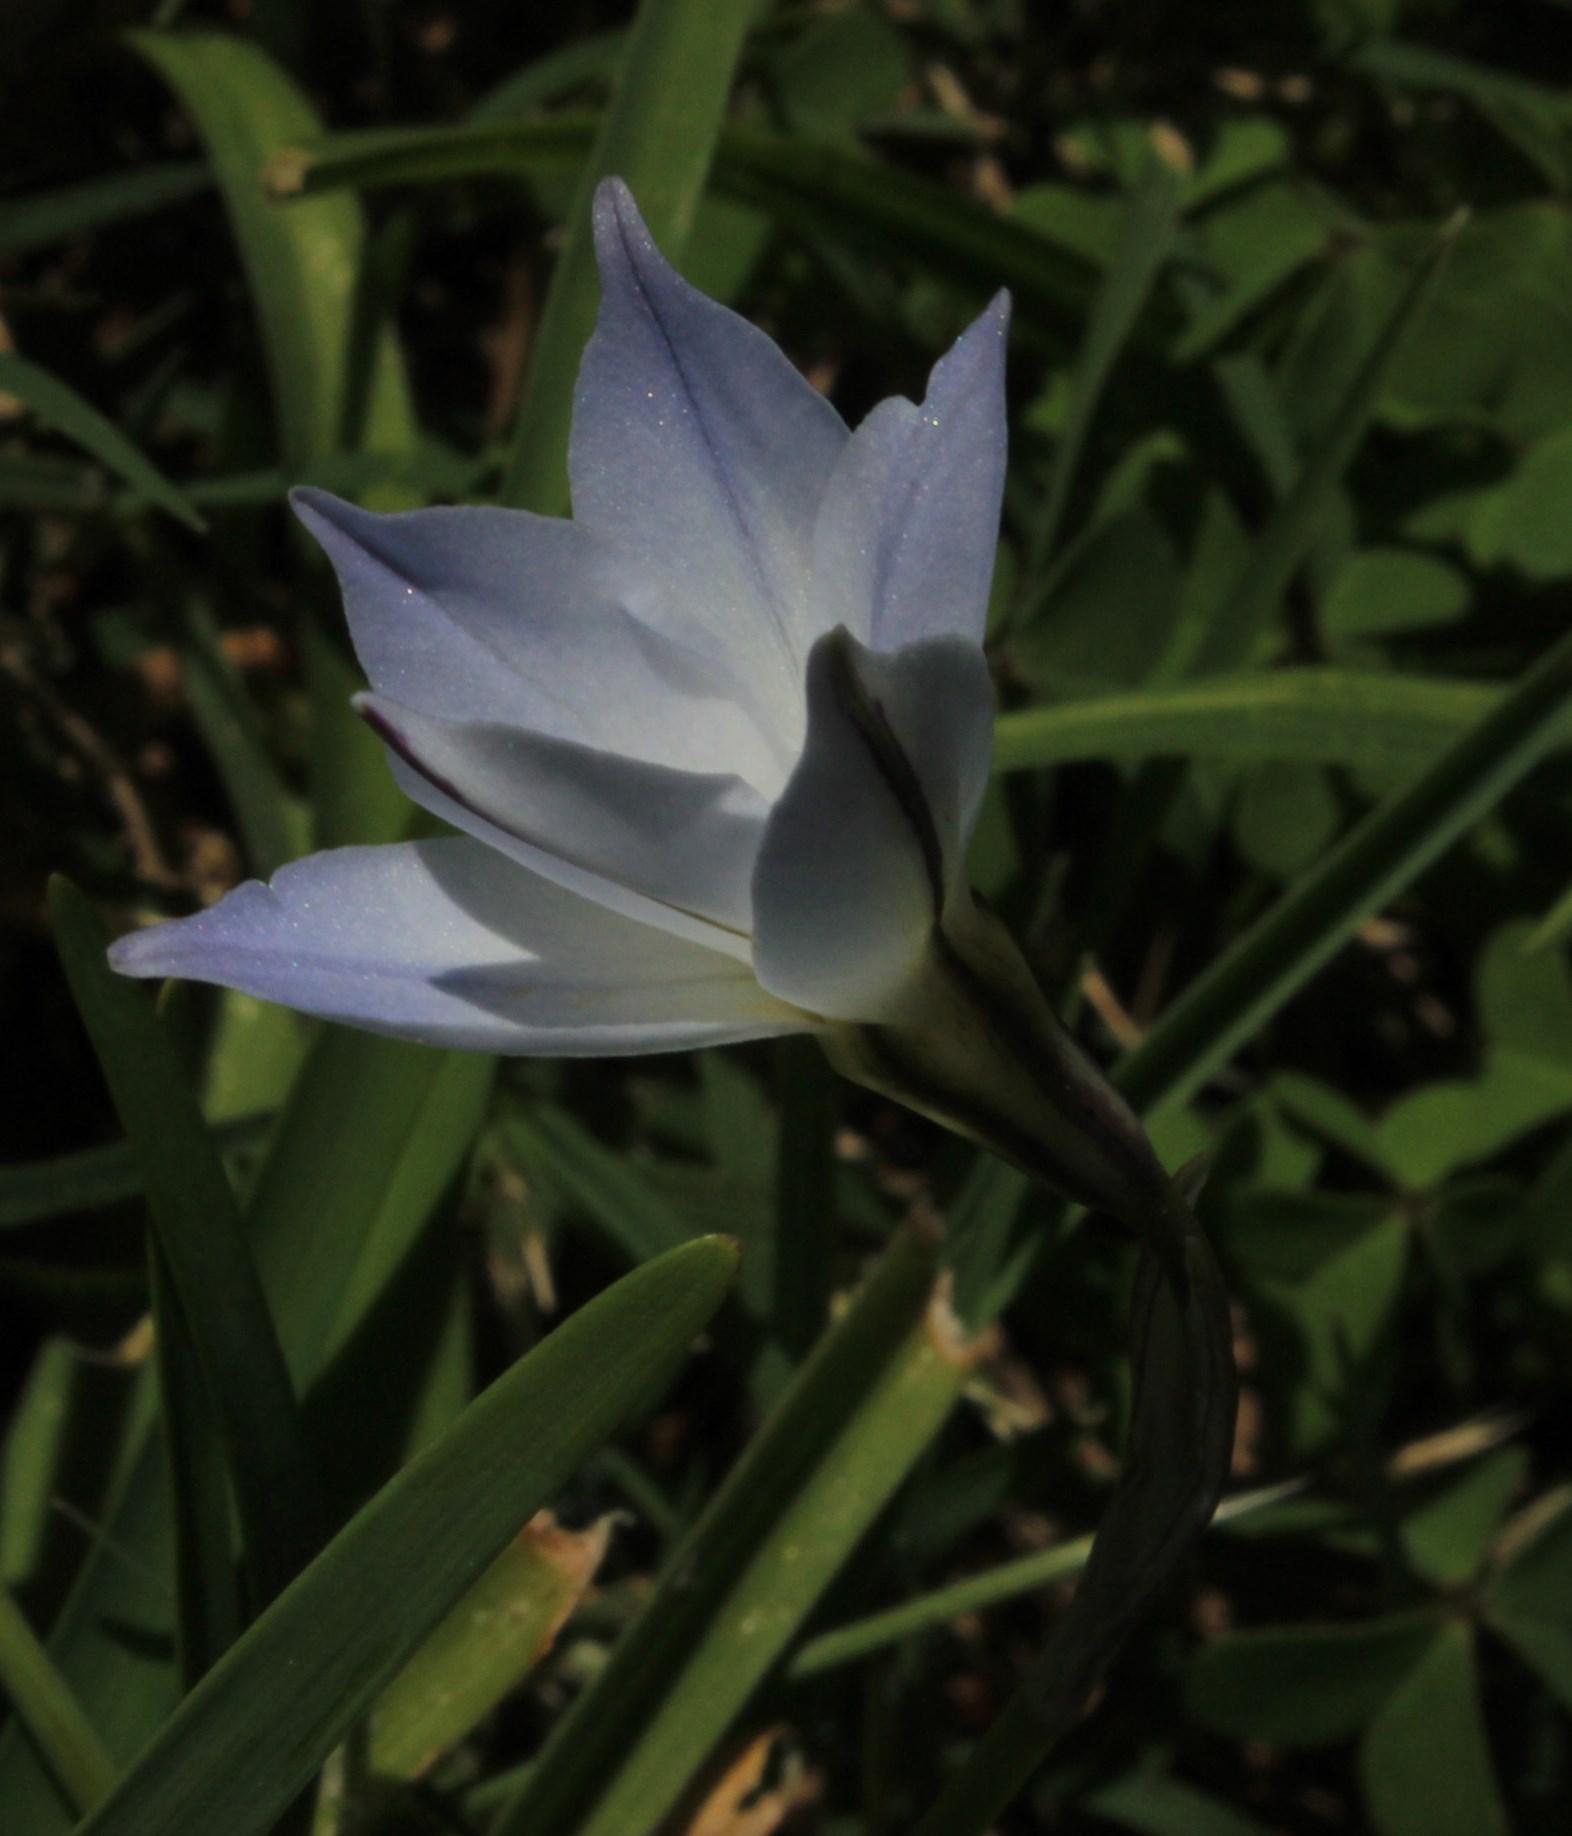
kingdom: Plantae
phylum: Tracheophyta
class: Liliopsida
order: Asparagales
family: Amaryllidaceae
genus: Ipheion
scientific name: Ipheion uniflorum
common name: Spring starflower
